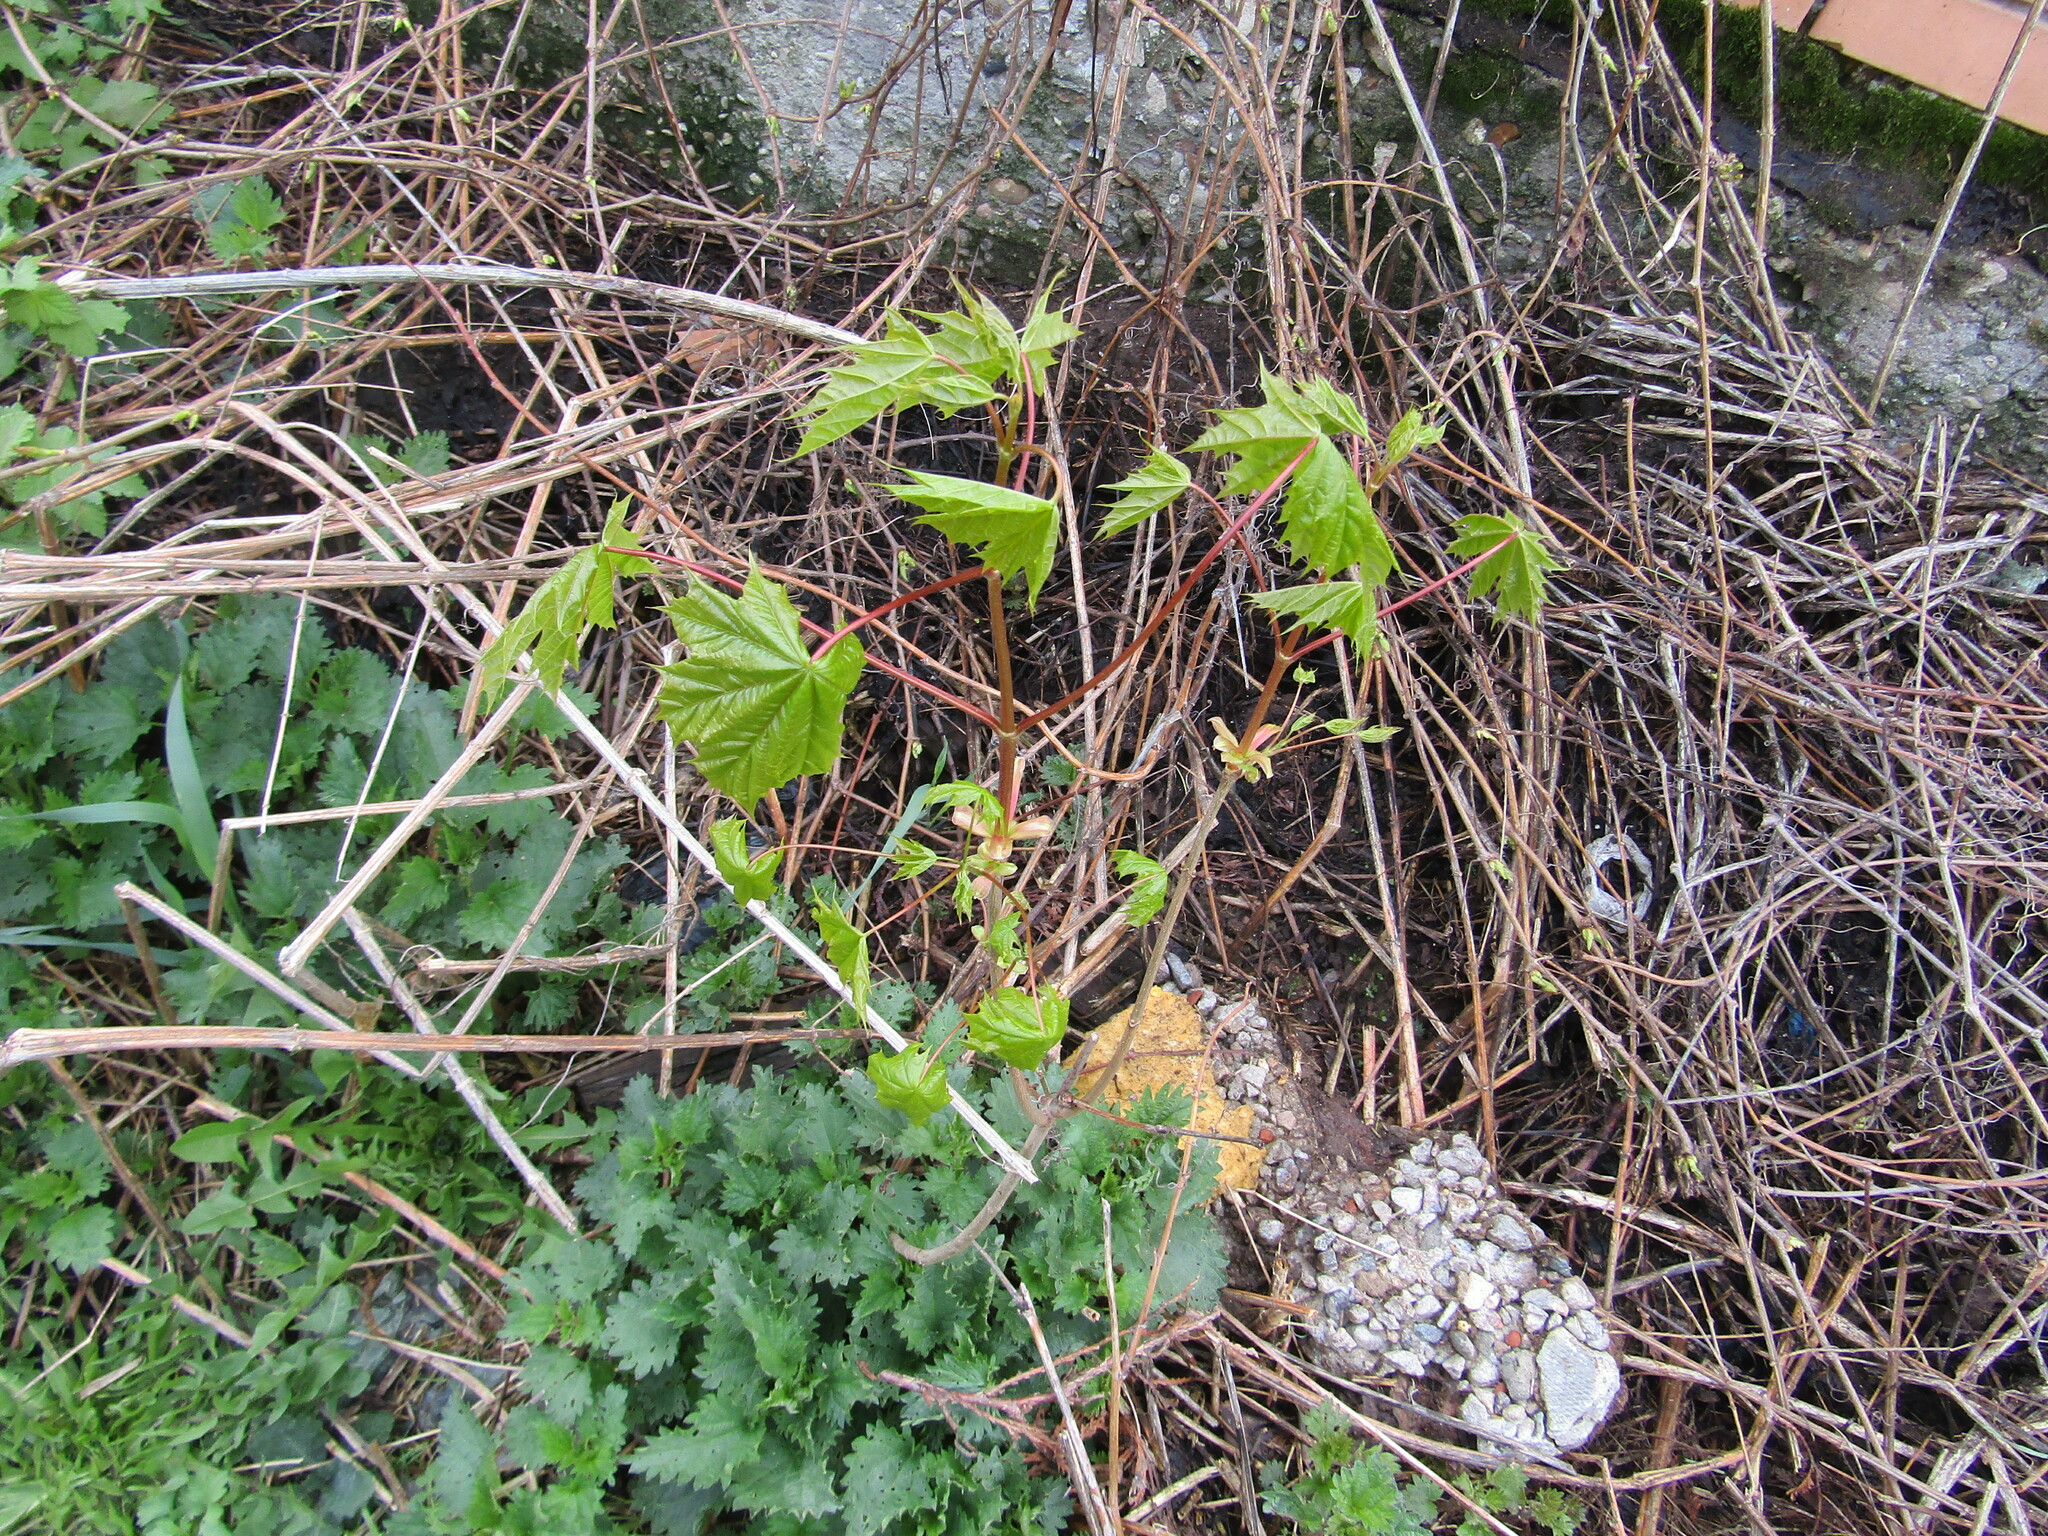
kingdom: Plantae
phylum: Tracheophyta
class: Magnoliopsida
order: Sapindales
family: Sapindaceae
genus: Acer
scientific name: Acer platanoides
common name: Norway maple
